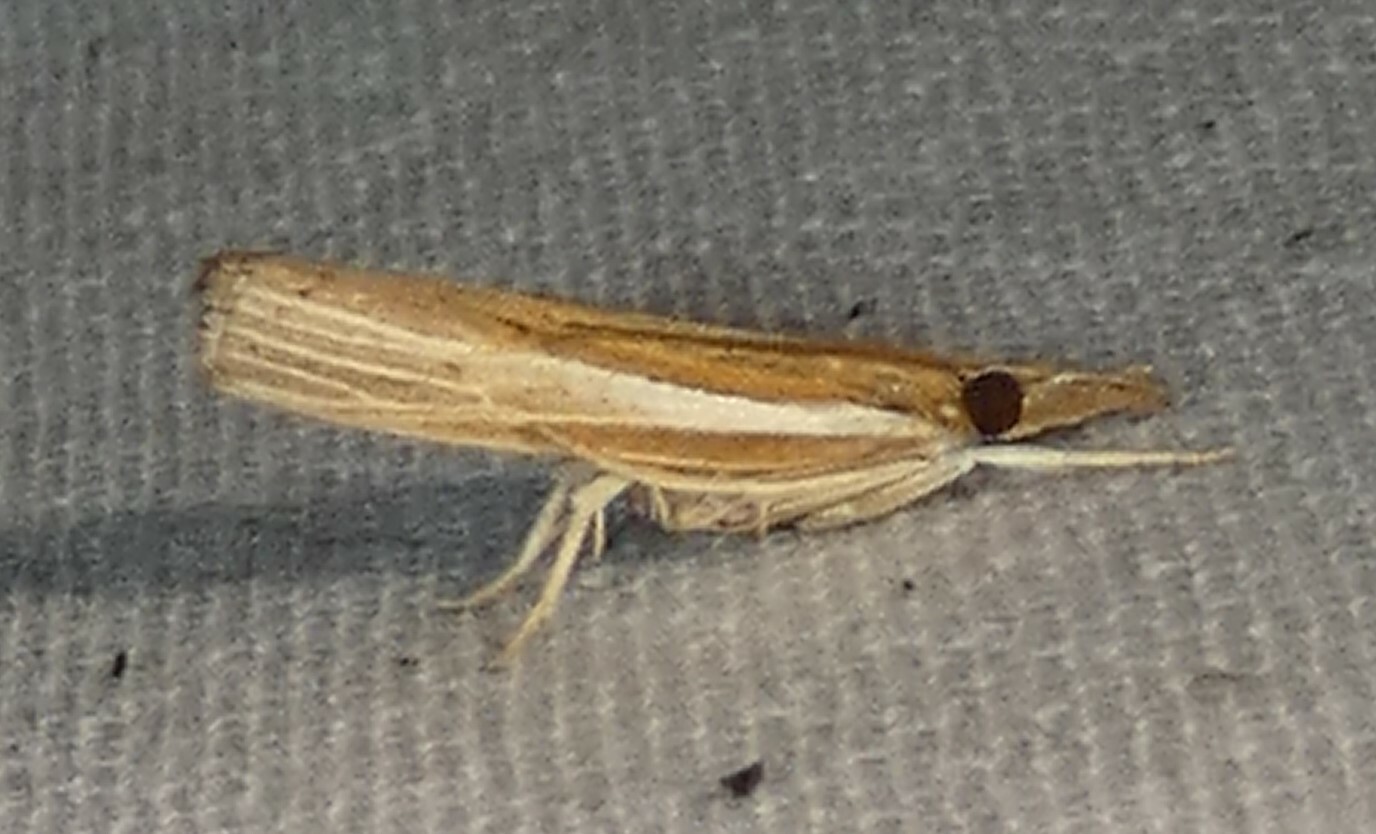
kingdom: Animalia
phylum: Arthropoda
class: Insecta
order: Lepidoptera
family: Crambidae
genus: Fissicrambus
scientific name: Fissicrambus fissiradiellus
